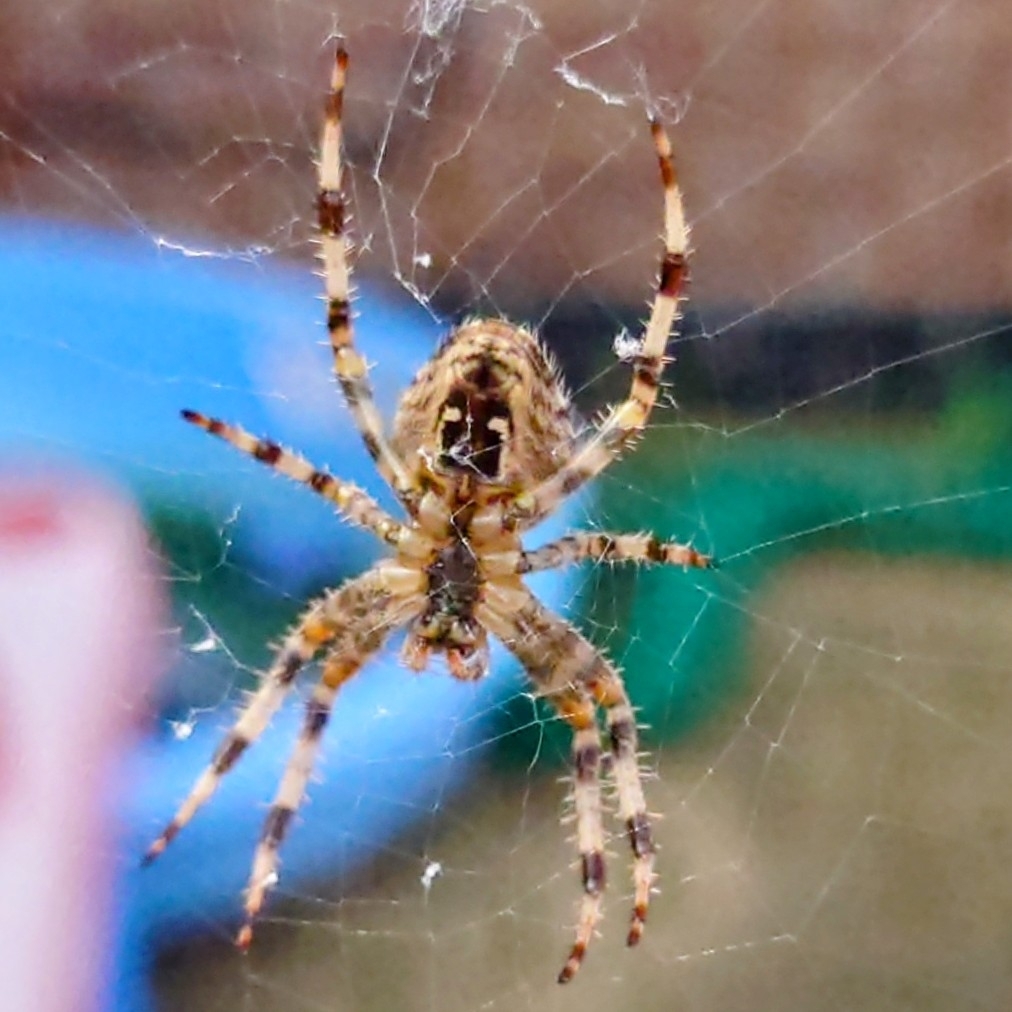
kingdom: Animalia
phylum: Arthropoda
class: Arachnida
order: Araneae
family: Araneidae
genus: Araneus
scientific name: Araneus diadematus
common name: Cross orbweaver
